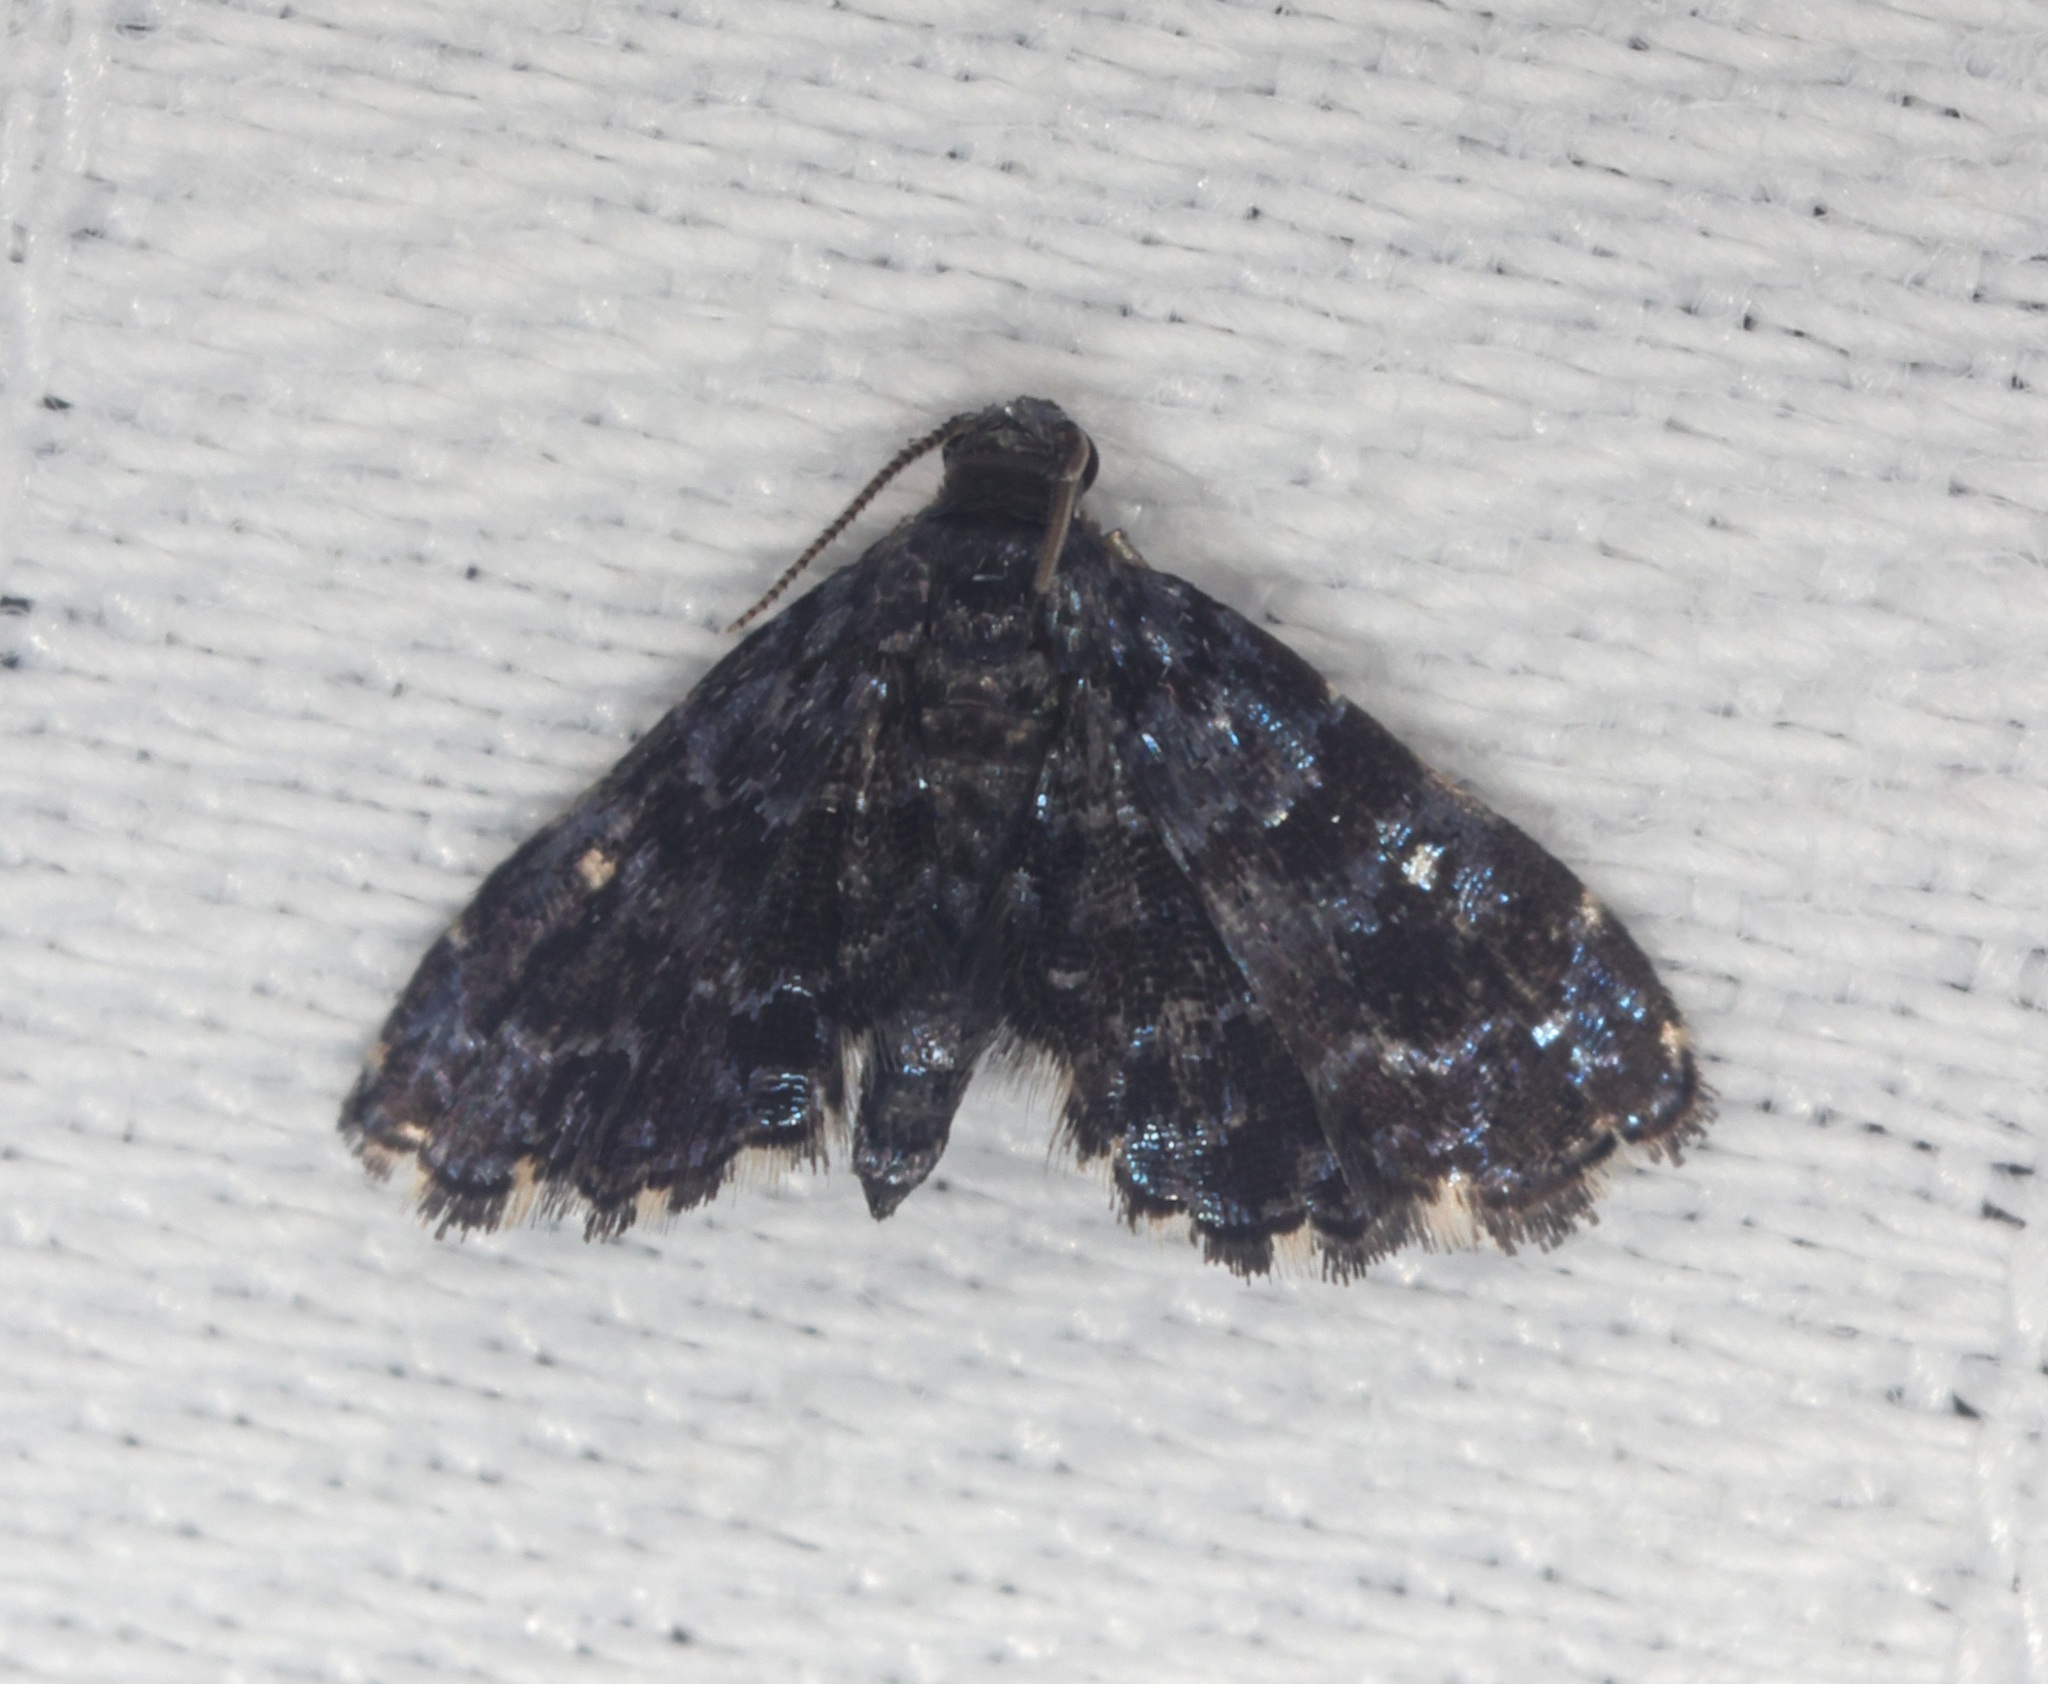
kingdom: Animalia
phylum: Arthropoda
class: Insecta
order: Lepidoptera
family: Pyralidae
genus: Drosophantis
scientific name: Drosophantis caeruleata
